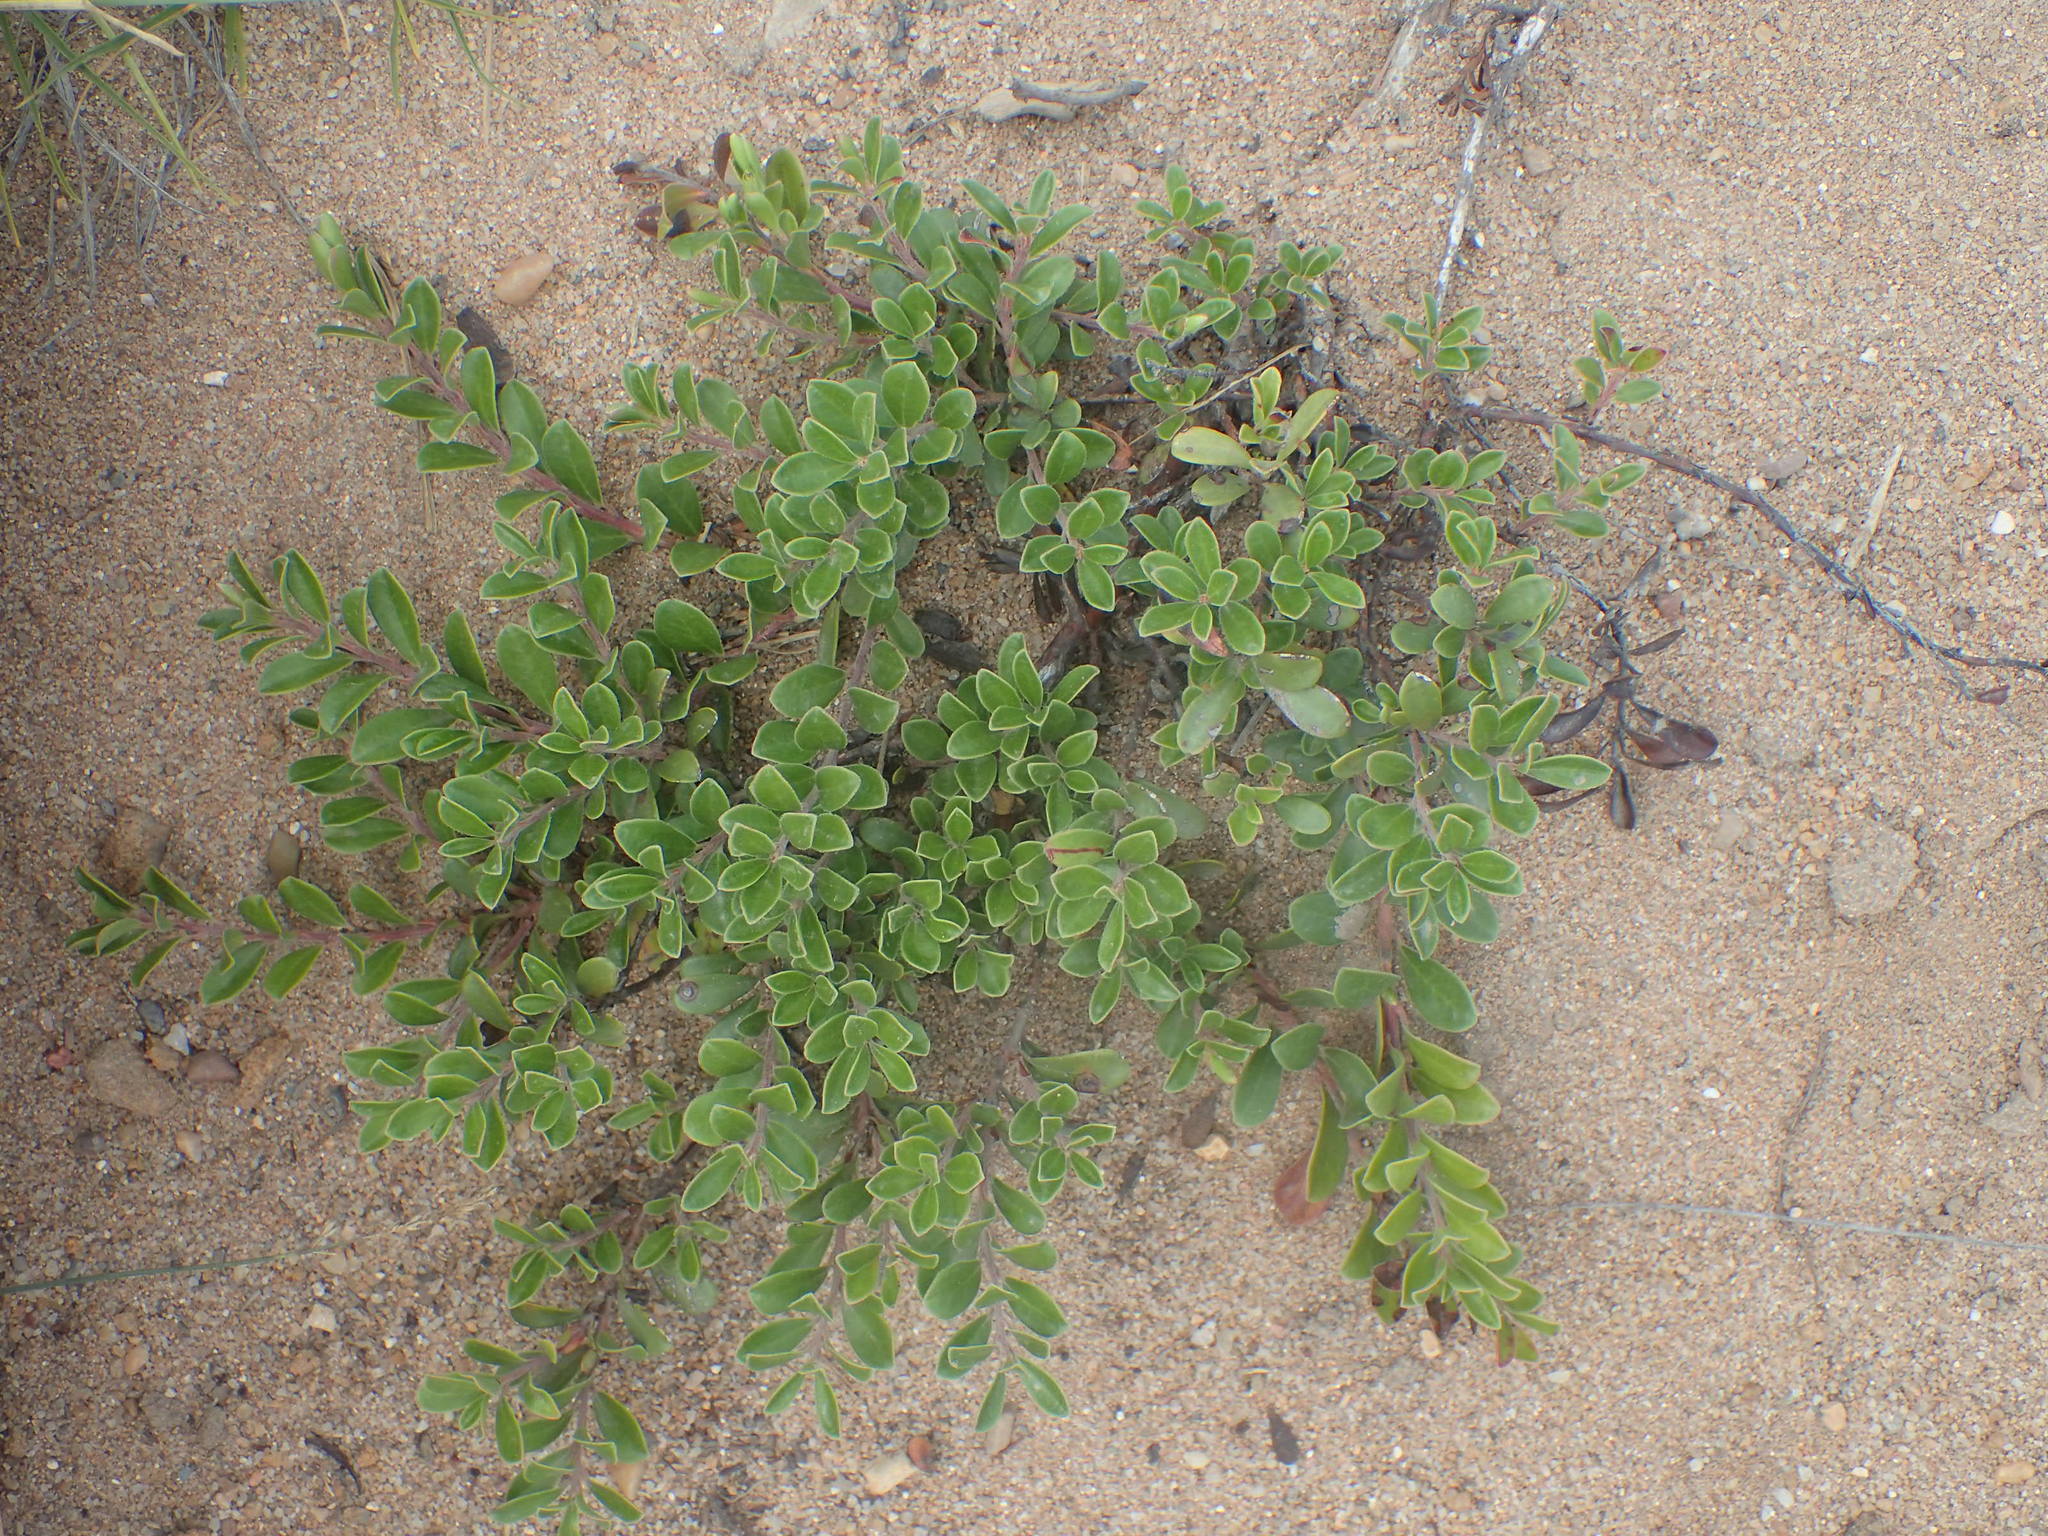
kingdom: Plantae
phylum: Tracheophyta
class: Magnoliopsida
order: Ericales
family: Ericaceae
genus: Arctostaphylos
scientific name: Arctostaphylos uva-ursi
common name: Bearberry
